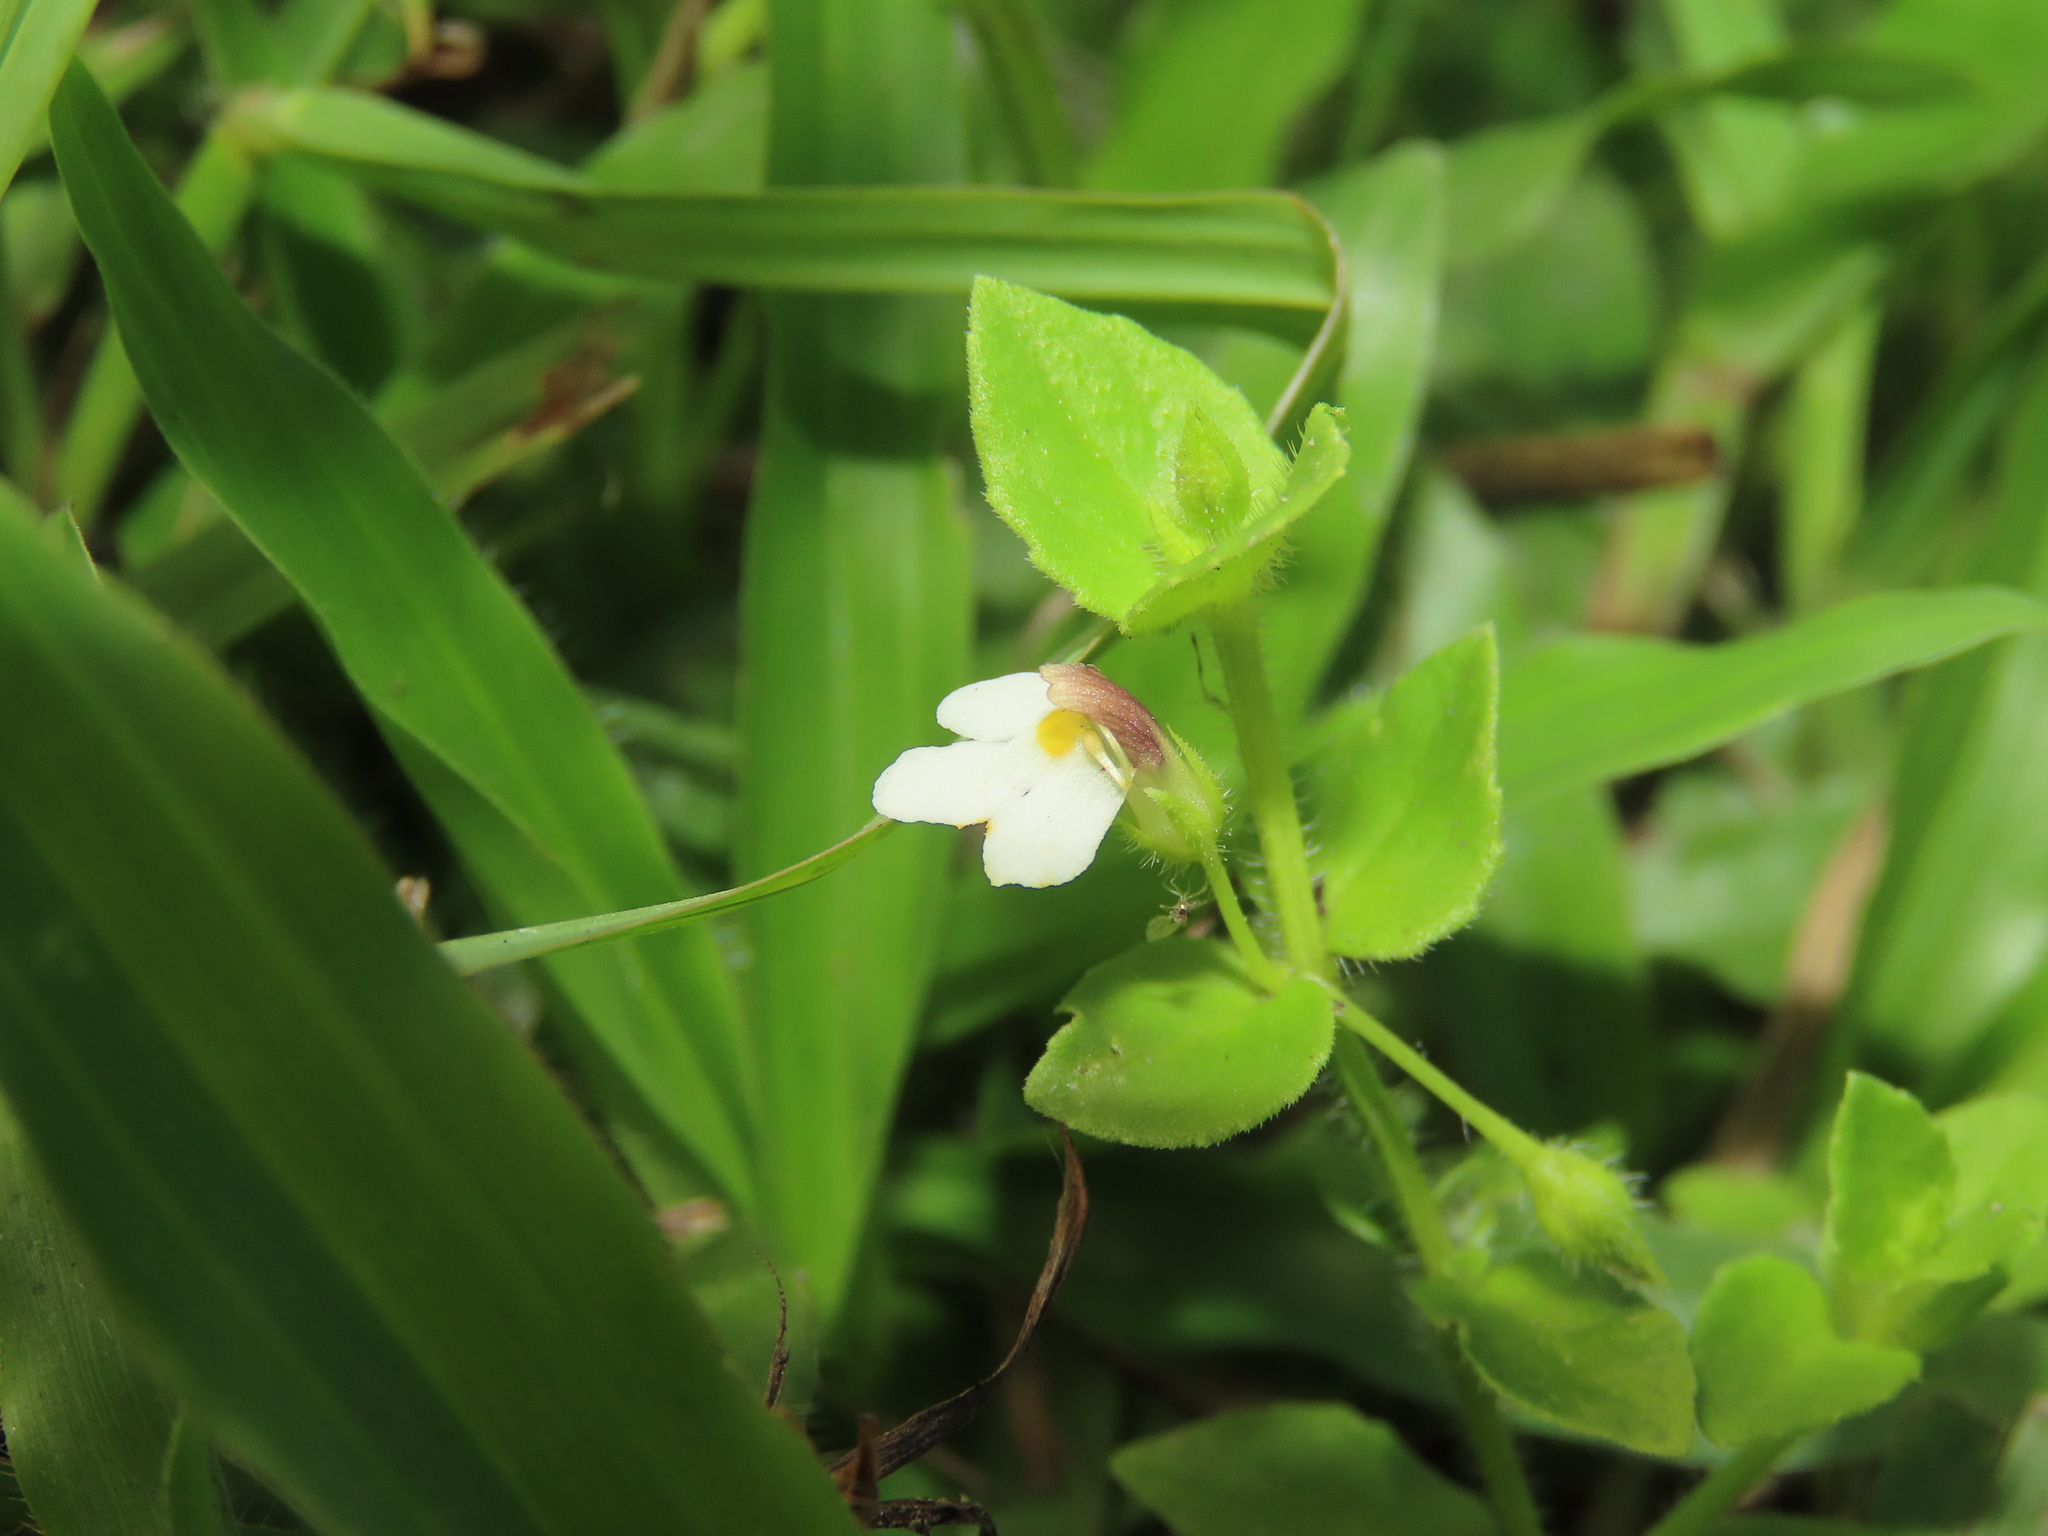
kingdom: Plantae
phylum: Tracheophyta
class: Magnoliopsida
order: Lamiales
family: Linderniaceae
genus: Yamazakia
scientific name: Yamazakia pusilla
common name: Tiny slitwort
